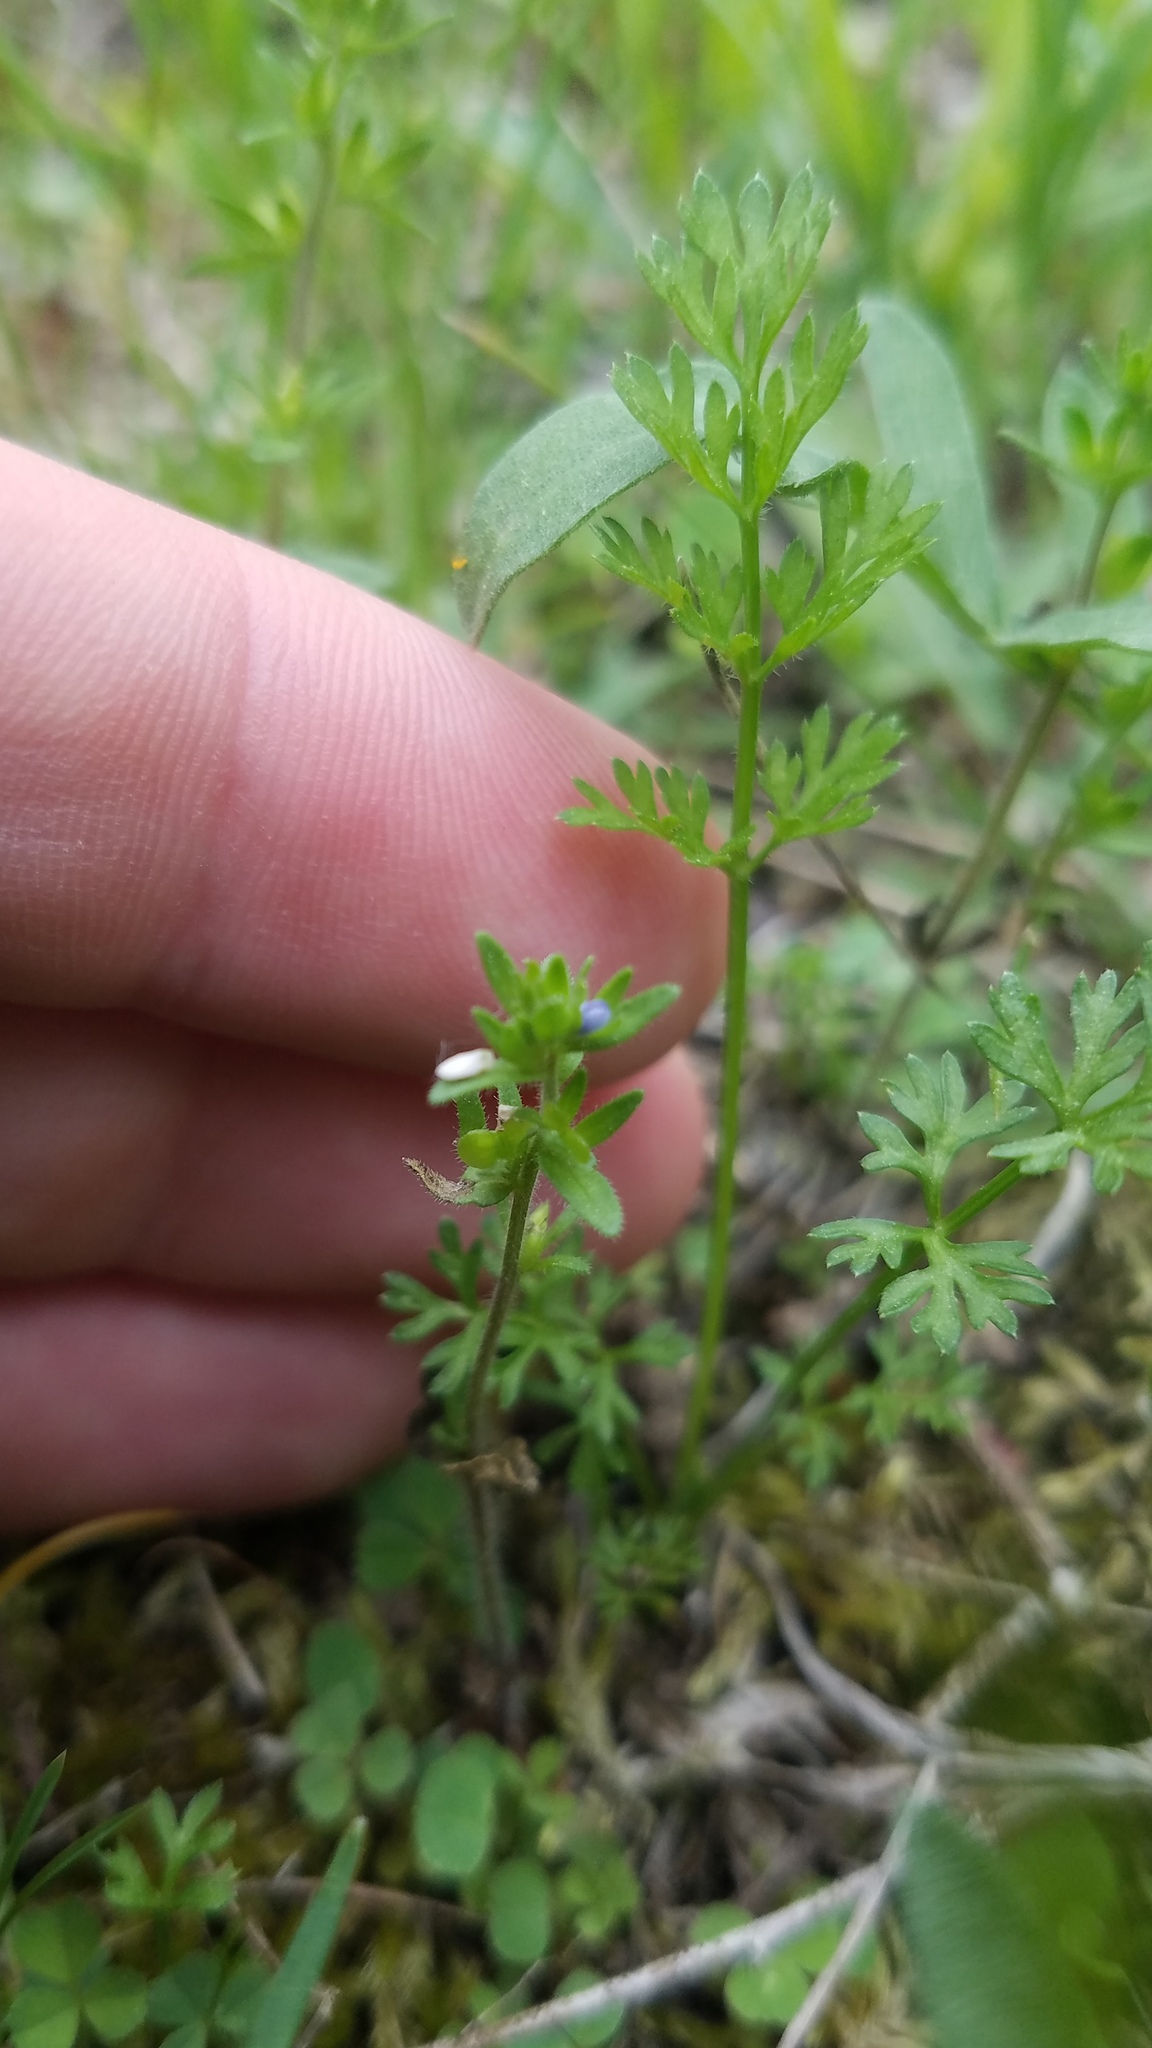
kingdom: Plantae
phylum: Tracheophyta
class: Magnoliopsida
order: Lamiales
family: Plantaginaceae
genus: Veronica
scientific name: Veronica arvensis
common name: Corn speedwell
